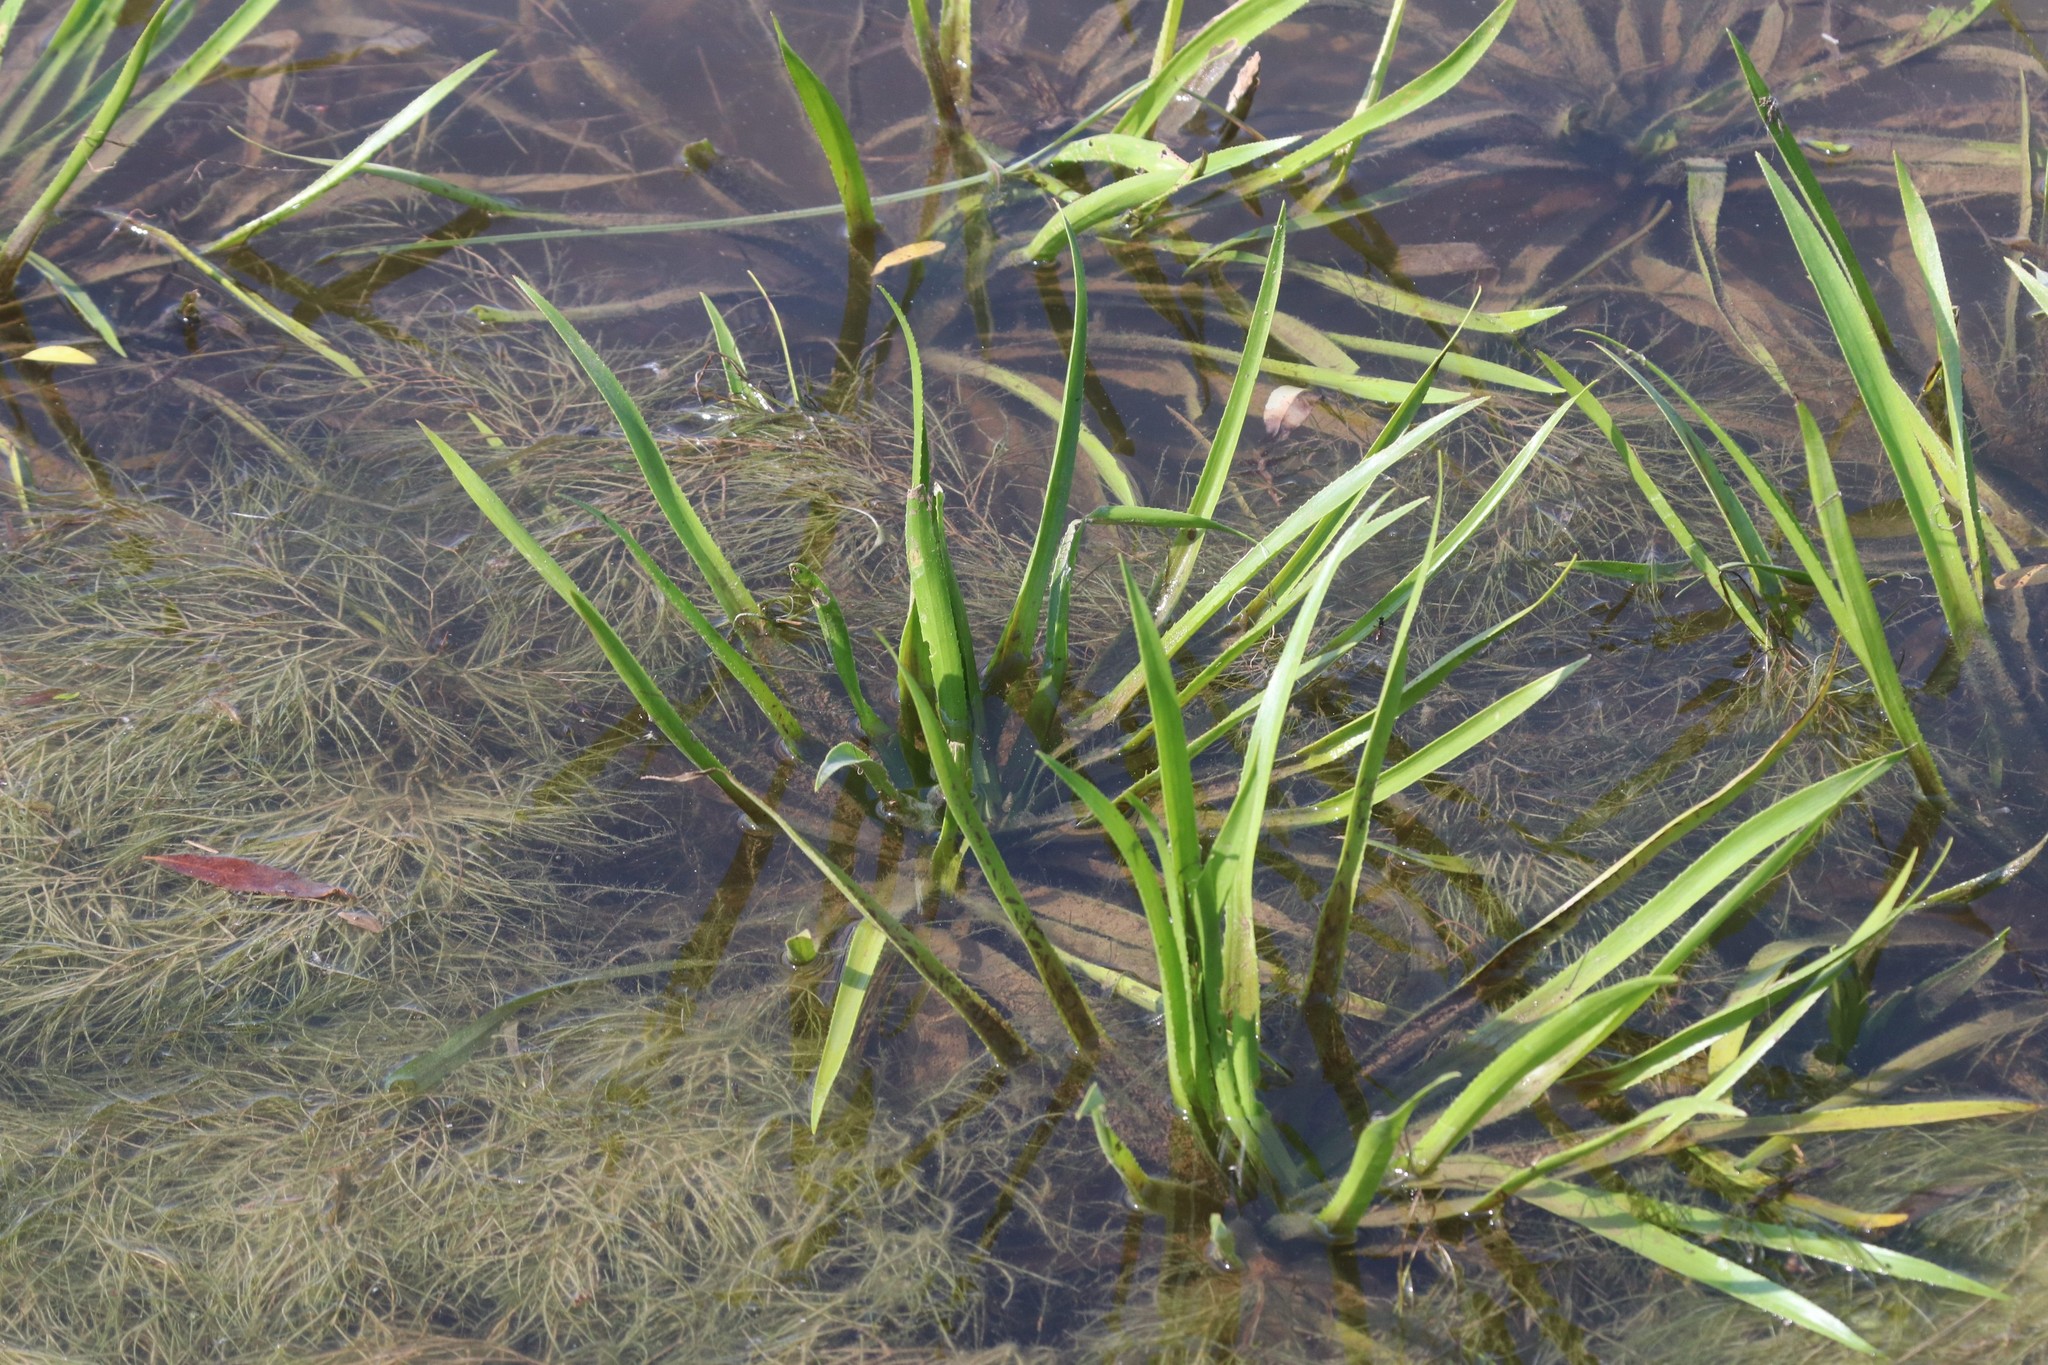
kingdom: Plantae
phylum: Tracheophyta
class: Liliopsida
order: Alismatales
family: Hydrocharitaceae
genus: Stratiotes
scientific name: Stratiotes aloides
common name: Water-soldier
